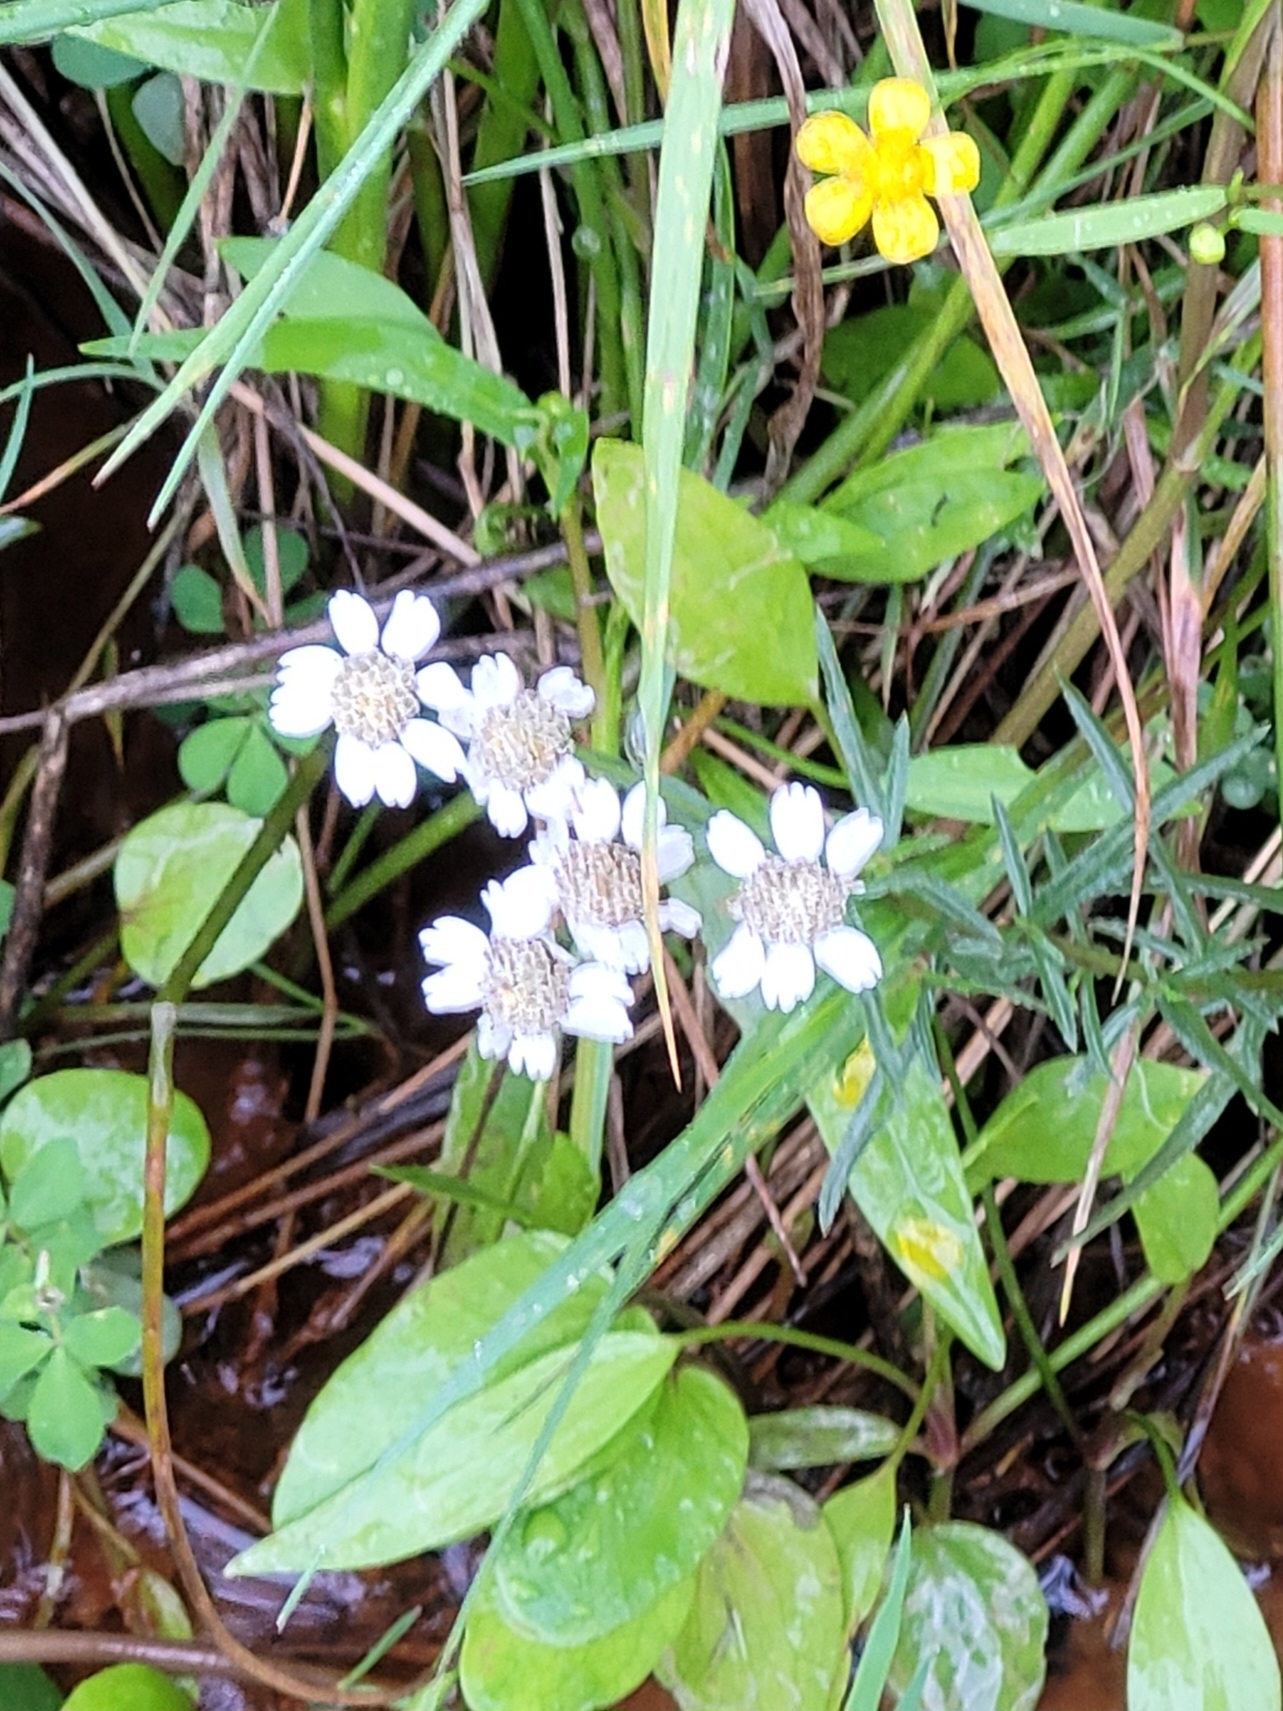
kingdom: Plantae
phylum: Tracheophyta
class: Magnoliopsida
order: Asterales
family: Asteraceae
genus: Achillea
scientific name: Achillea ptarmica
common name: Sneezeweed
